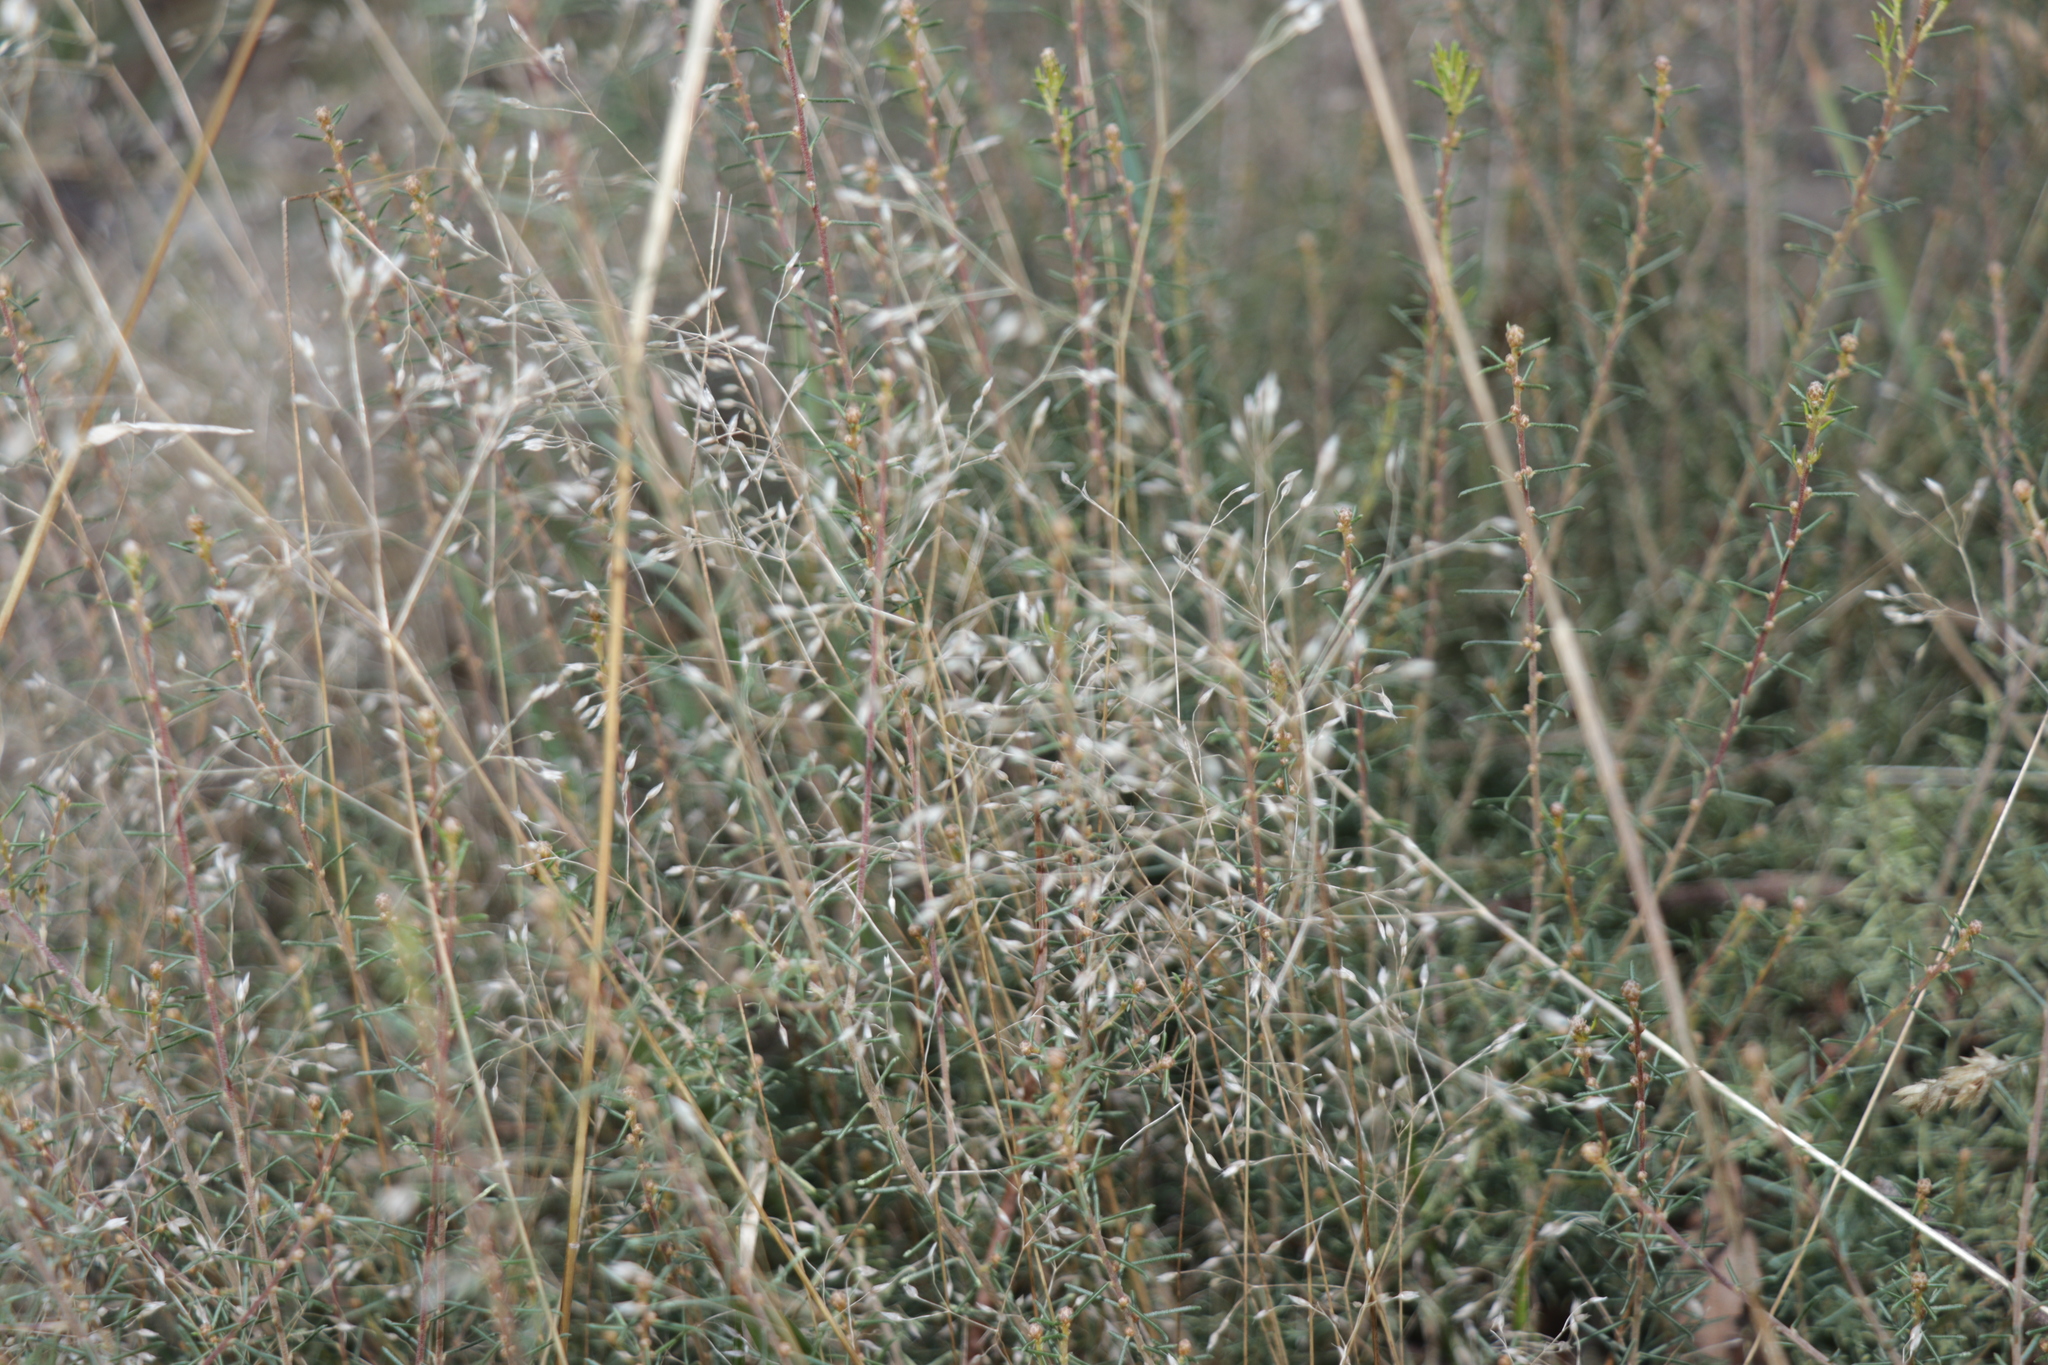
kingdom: Plantae
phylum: Tracheophyta
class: Liliopsida
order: Poales
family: Poaceae
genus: Aira
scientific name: Aira caryophyllea
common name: Silver hairgrass
